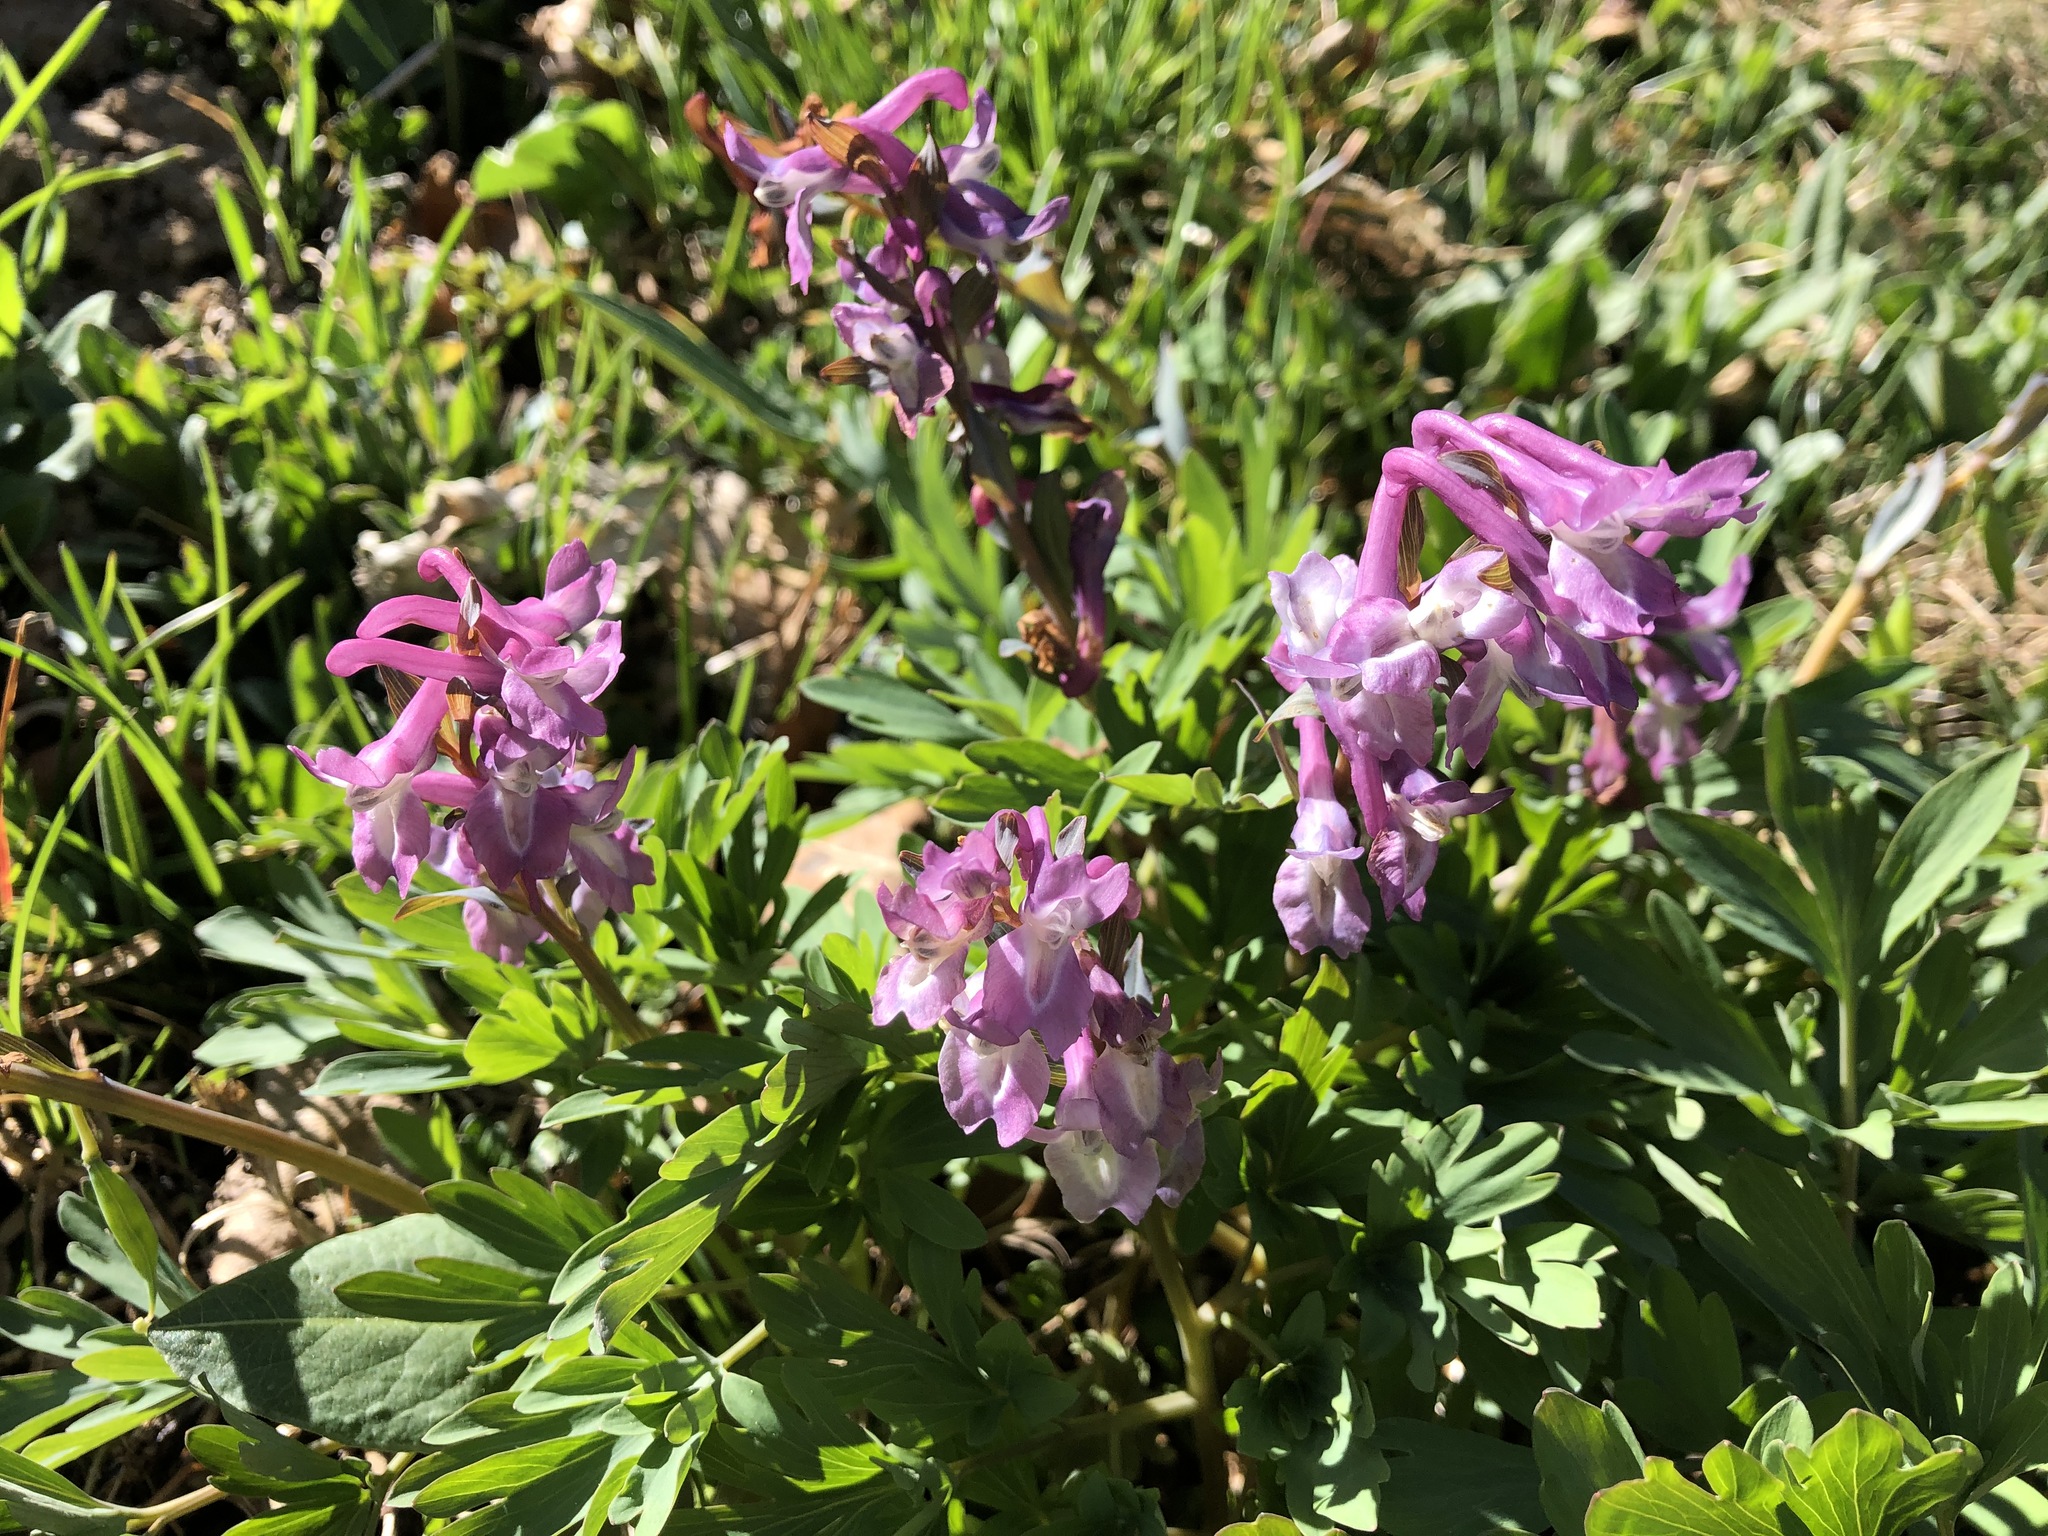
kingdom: Plantae
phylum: Tracheophyta
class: Magnoliopsida
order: Ranunculales
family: Papaveraceae
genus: Corydalis
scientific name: Corydalis cava
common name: Hollowroot
